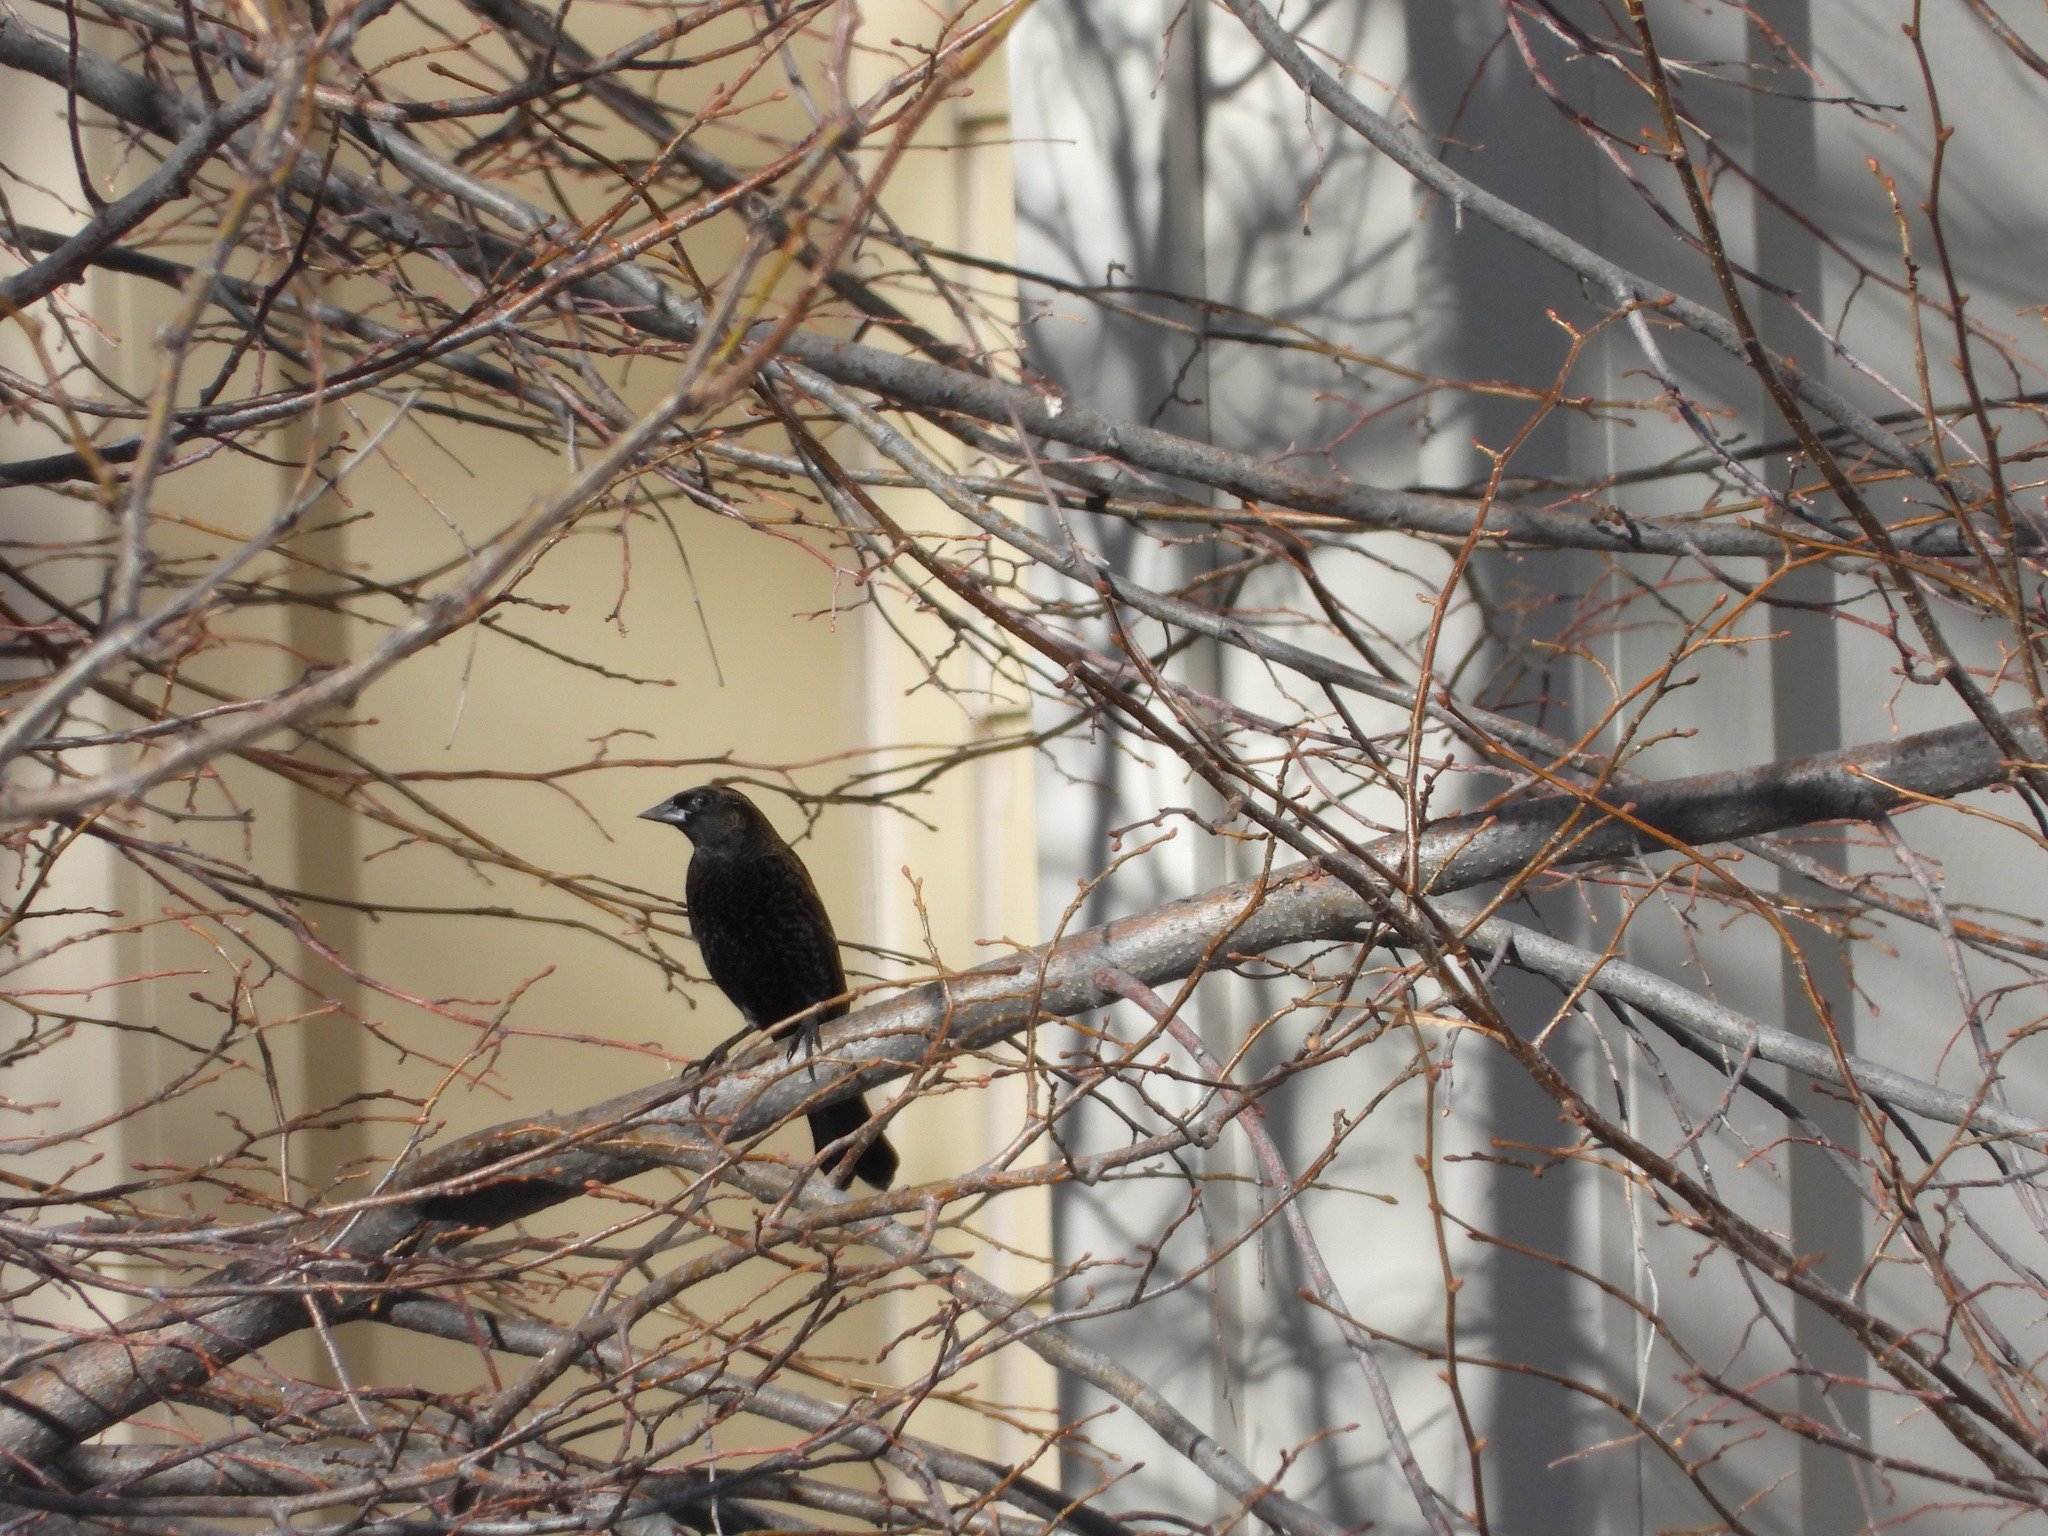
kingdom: Animalia
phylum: Chordata
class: Aves
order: Passeriformes
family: Icteridae
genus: Agelaius
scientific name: Agelaius phoeniceus
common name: Red-winged blackbird
